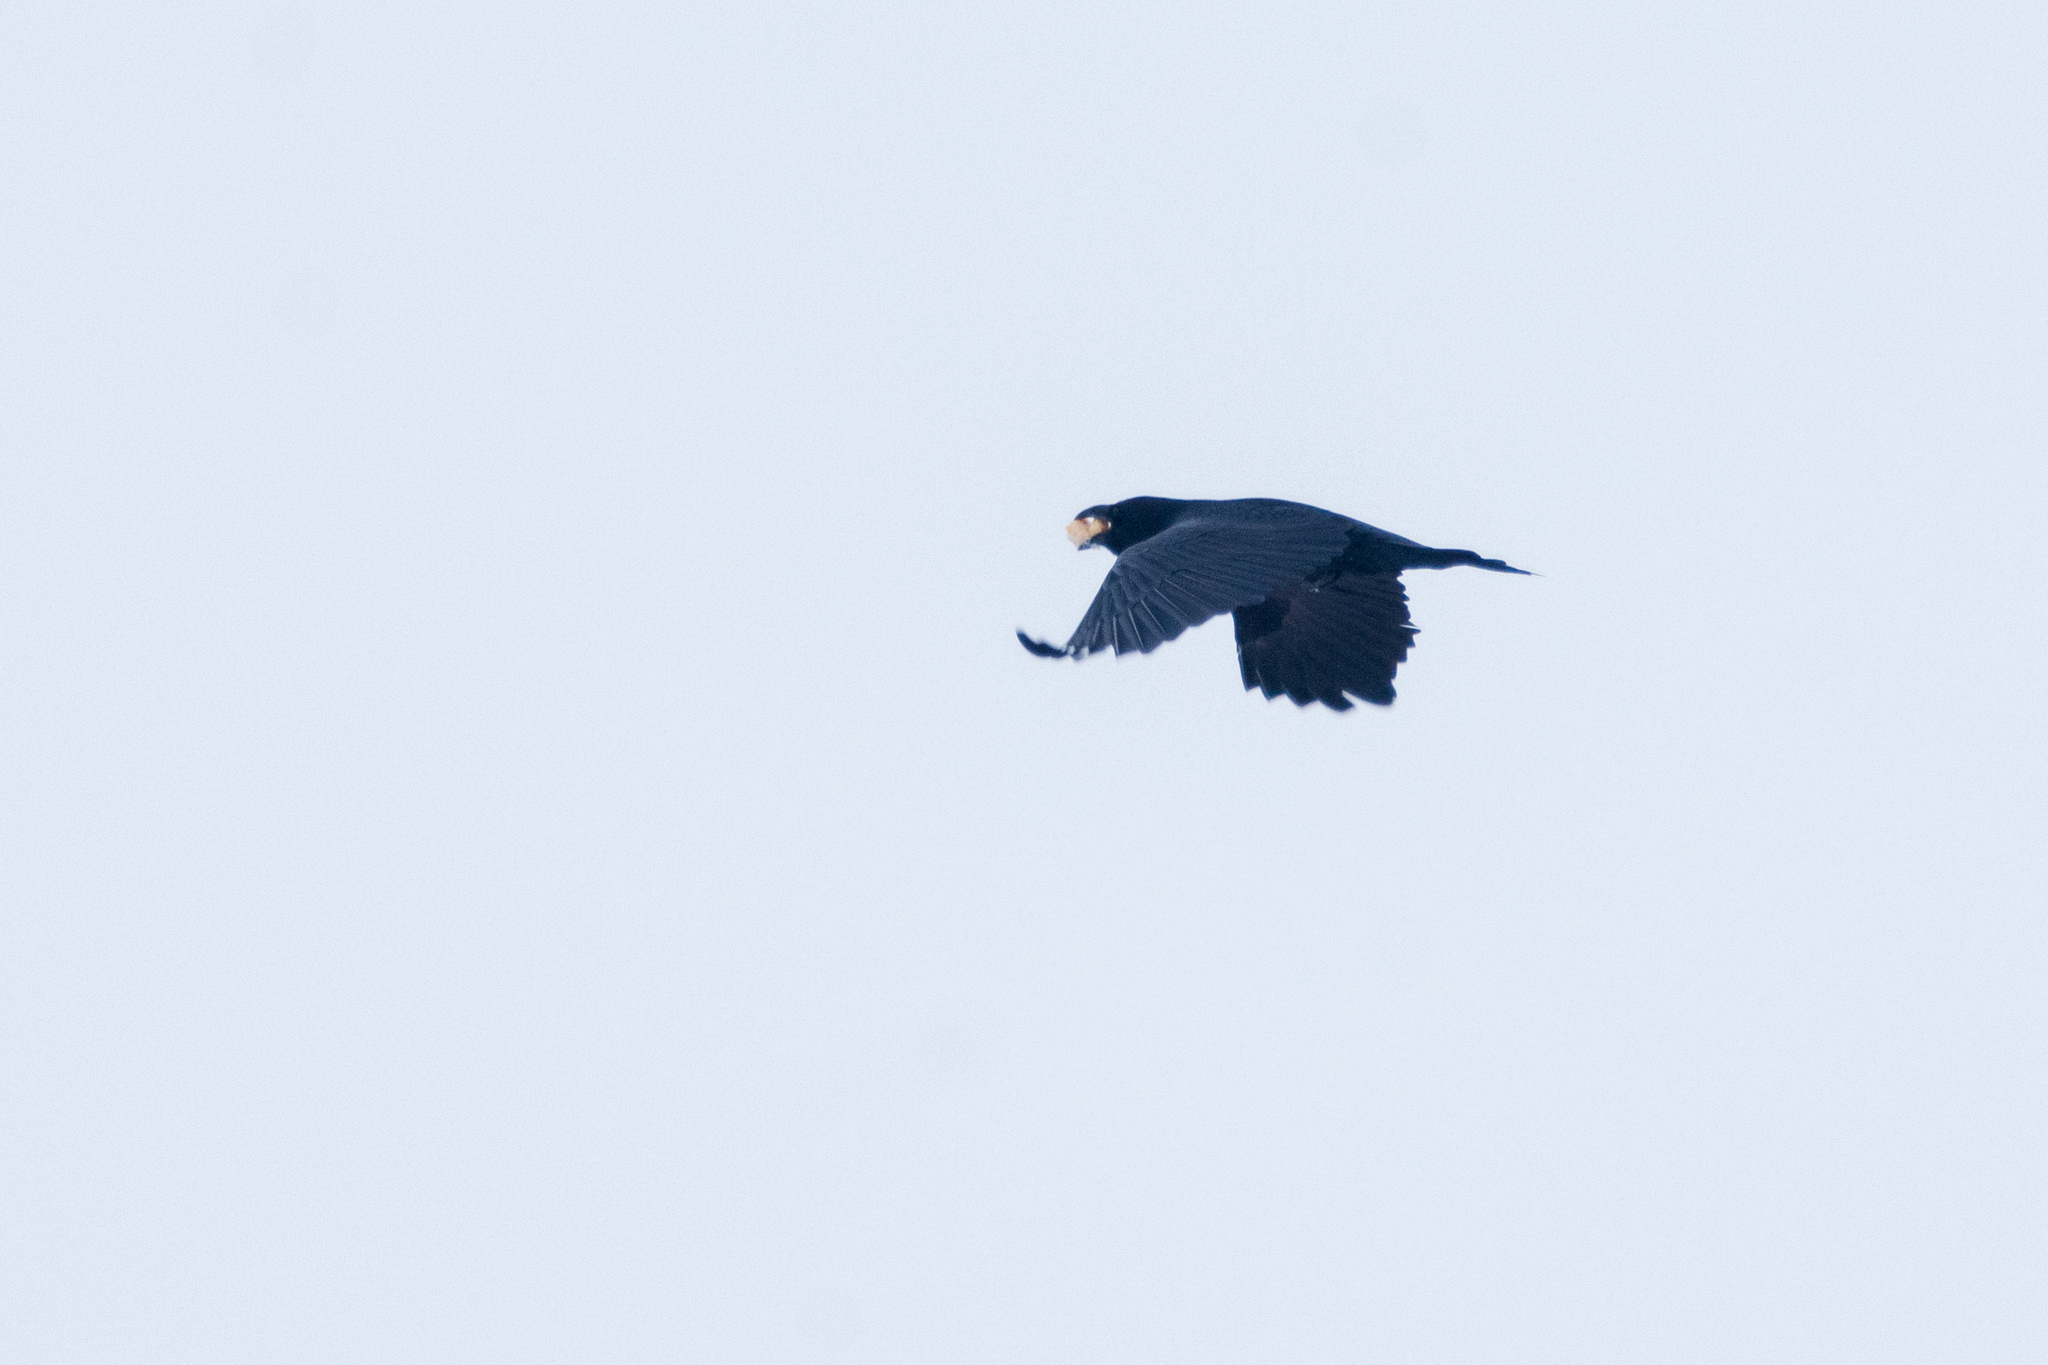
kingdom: Animalia
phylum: Chordata
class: Aves
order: Passeriformes
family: Corvidae
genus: Corvus
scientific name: Corvus corax
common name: Common raven
